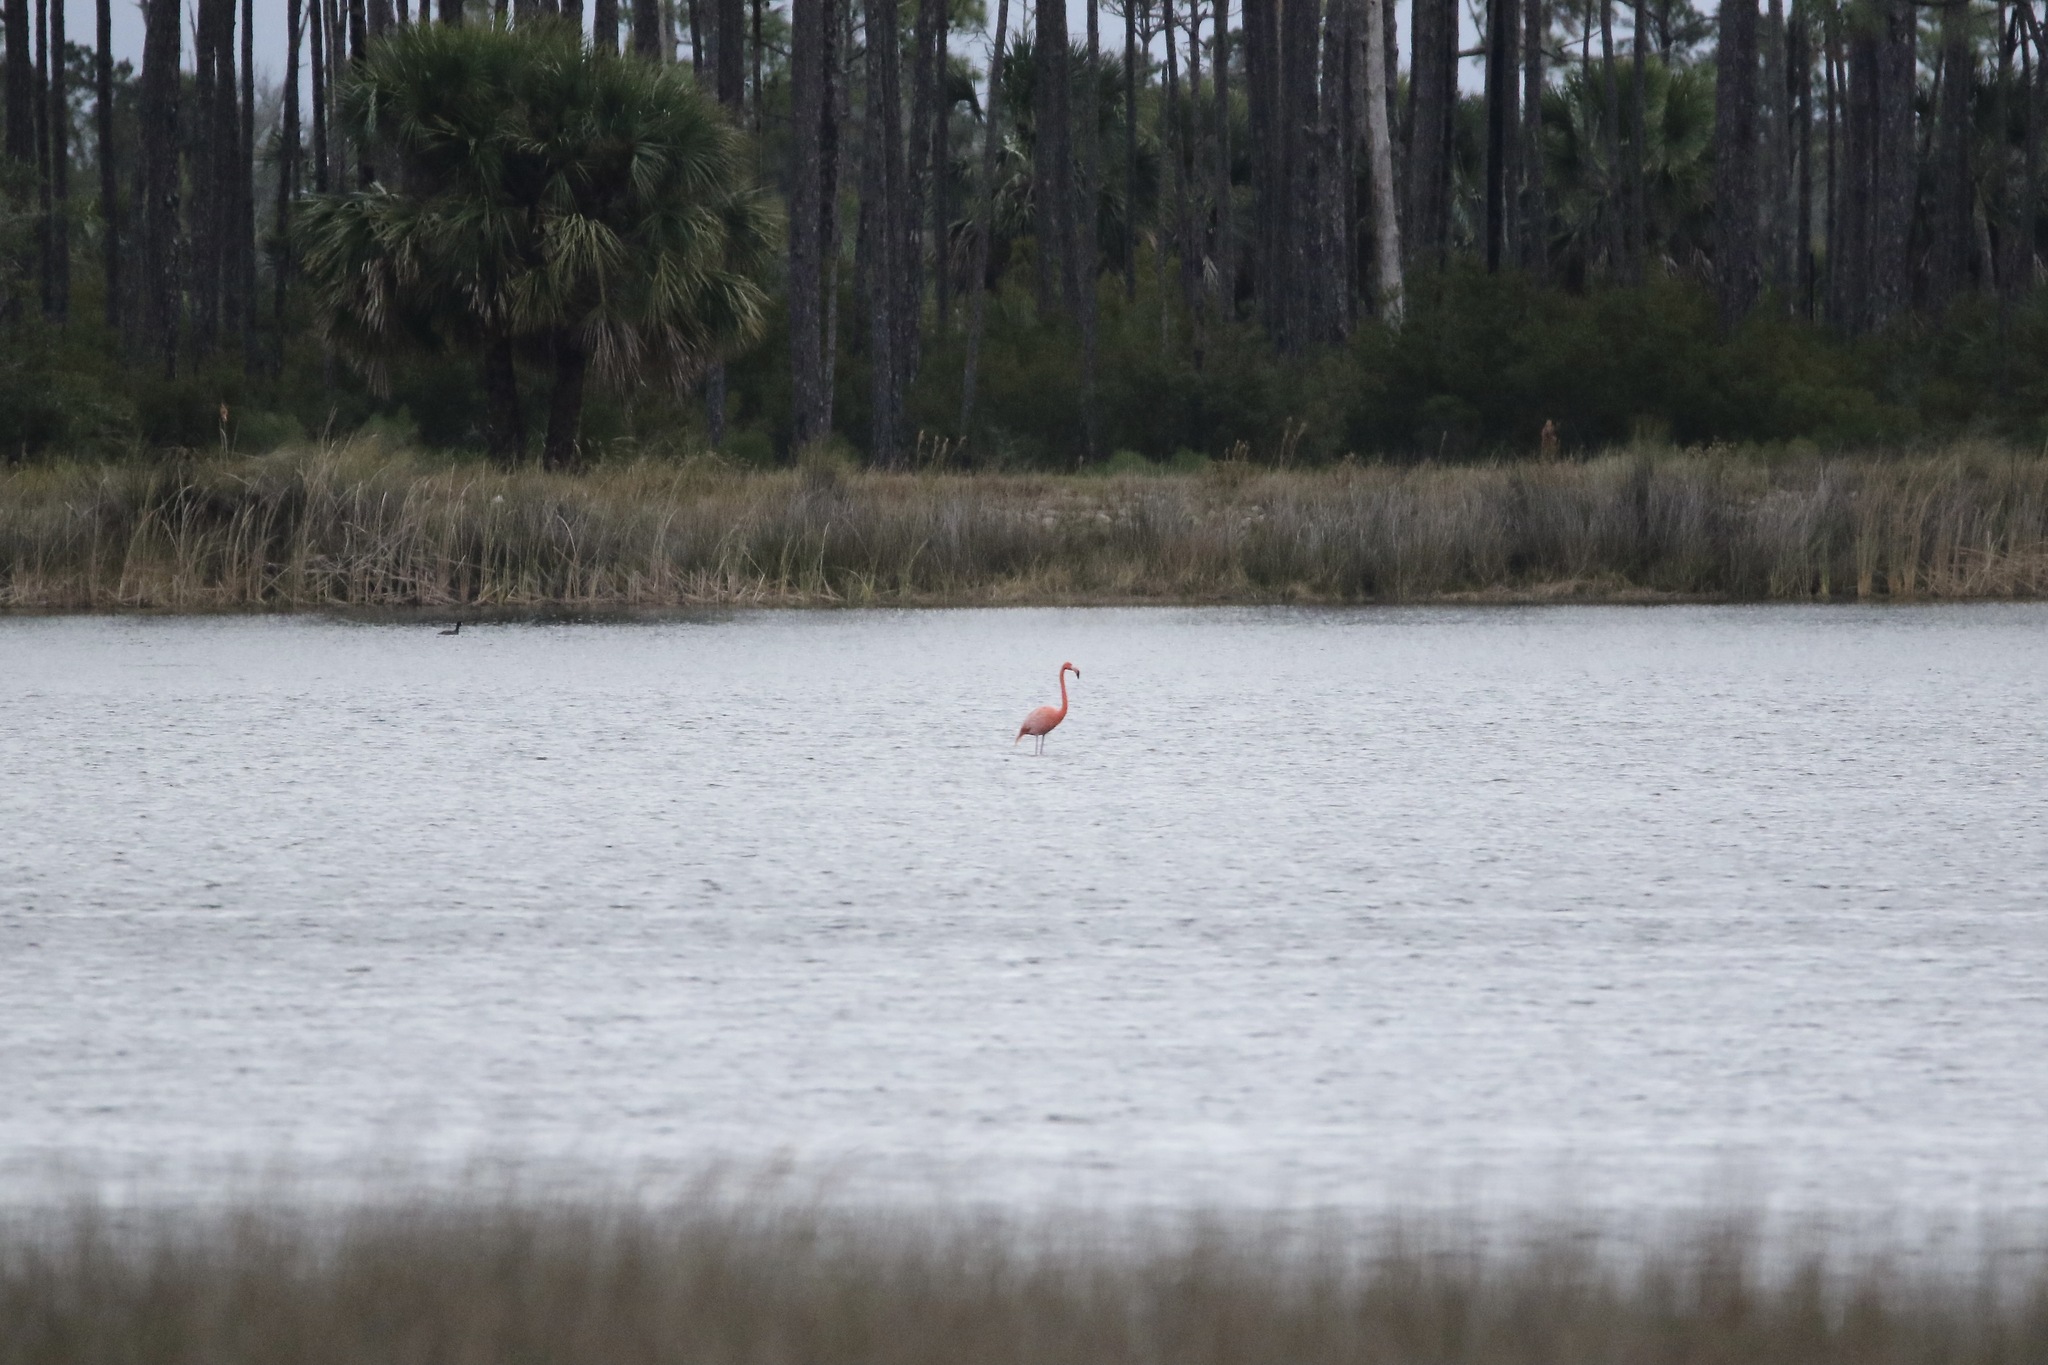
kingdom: Animalia
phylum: Chordata
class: Aves
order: Phoenicopteriformes
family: Phoenicopteridae
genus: Phoenicopterus
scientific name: Phoenicopterus ruber
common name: American flamingo
